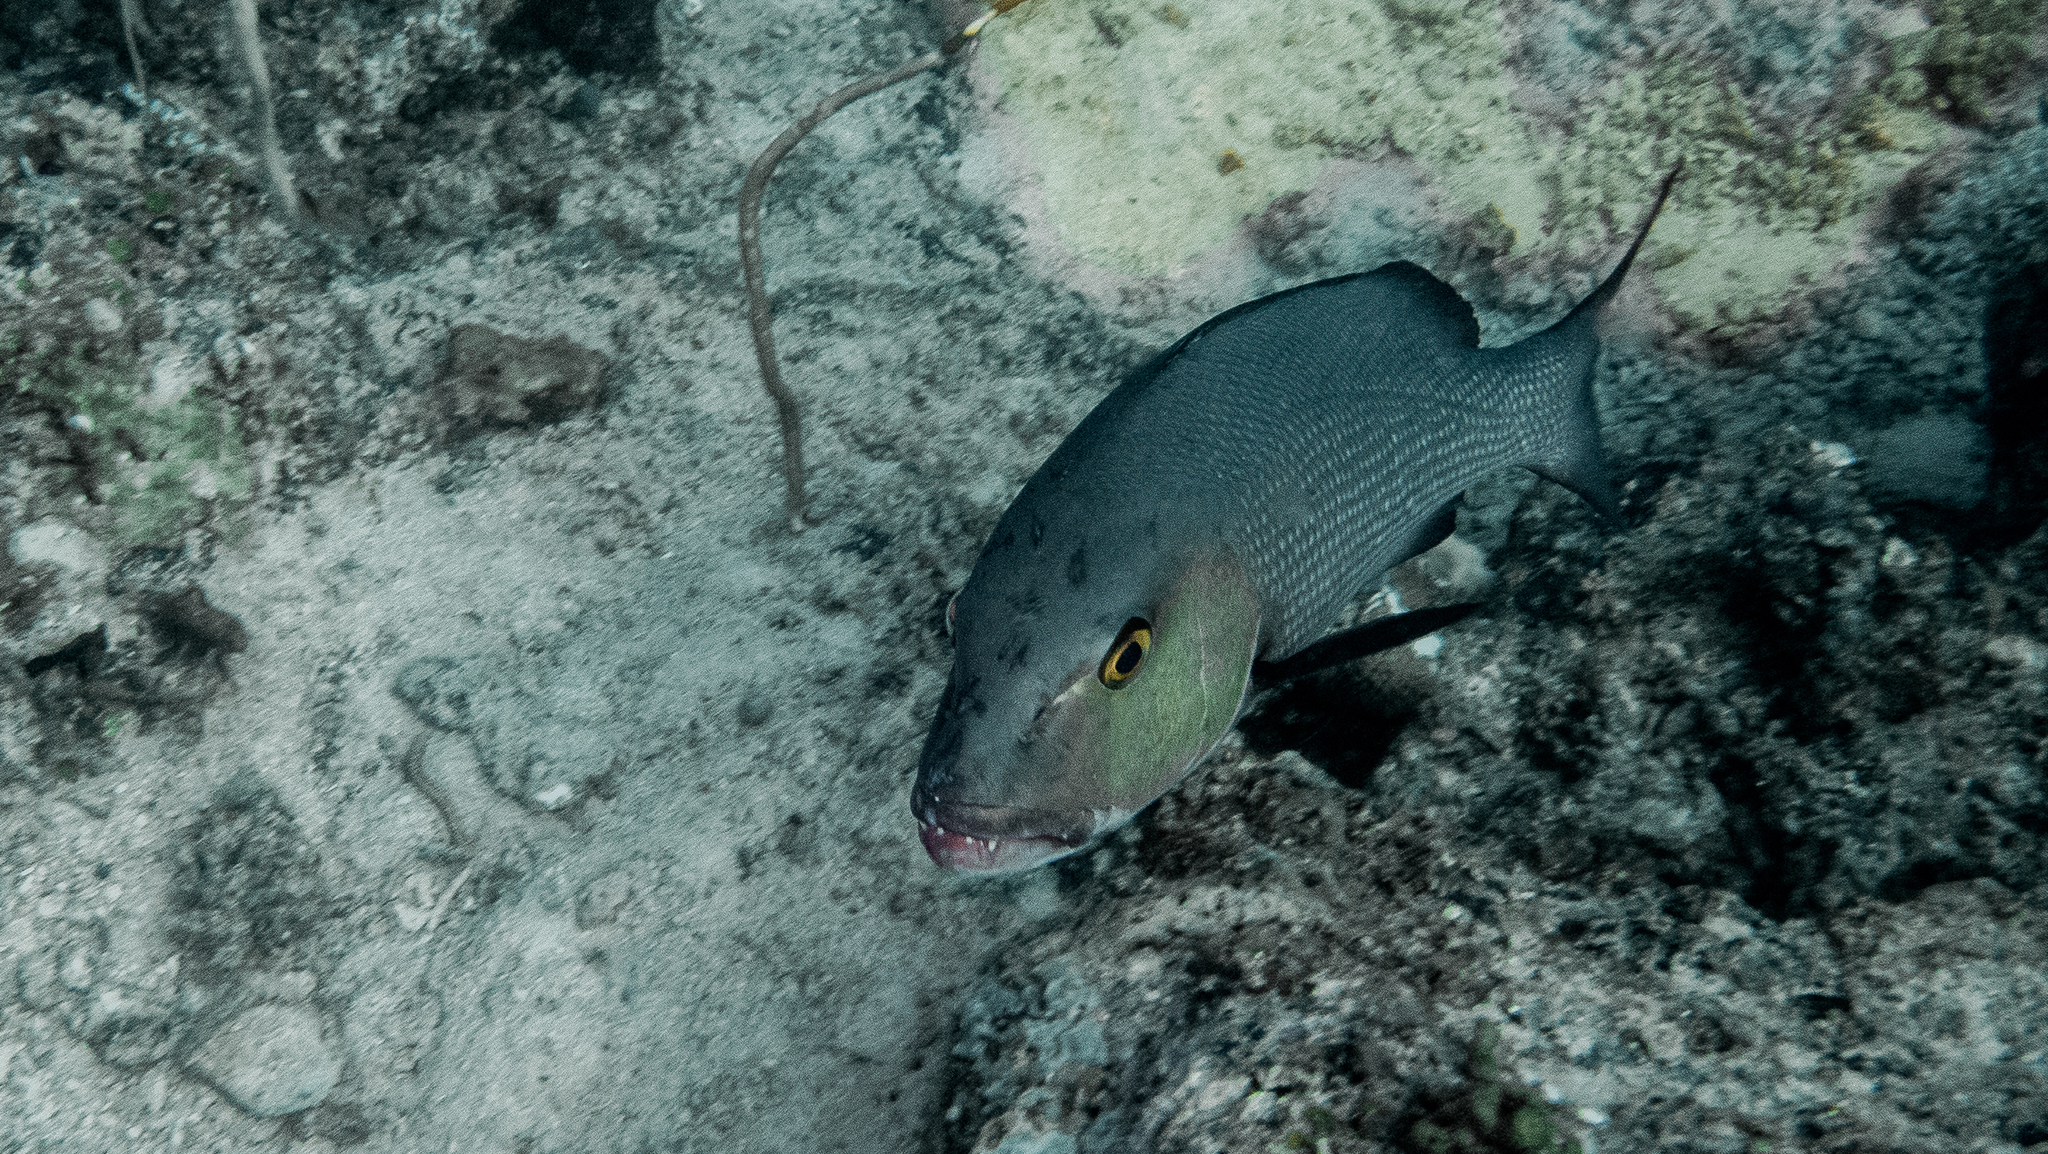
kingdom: Animalia
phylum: Chordata
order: Perciformes
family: Lutjanidae
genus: Lutjanus
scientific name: Lutjanus bohar
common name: Red bass
